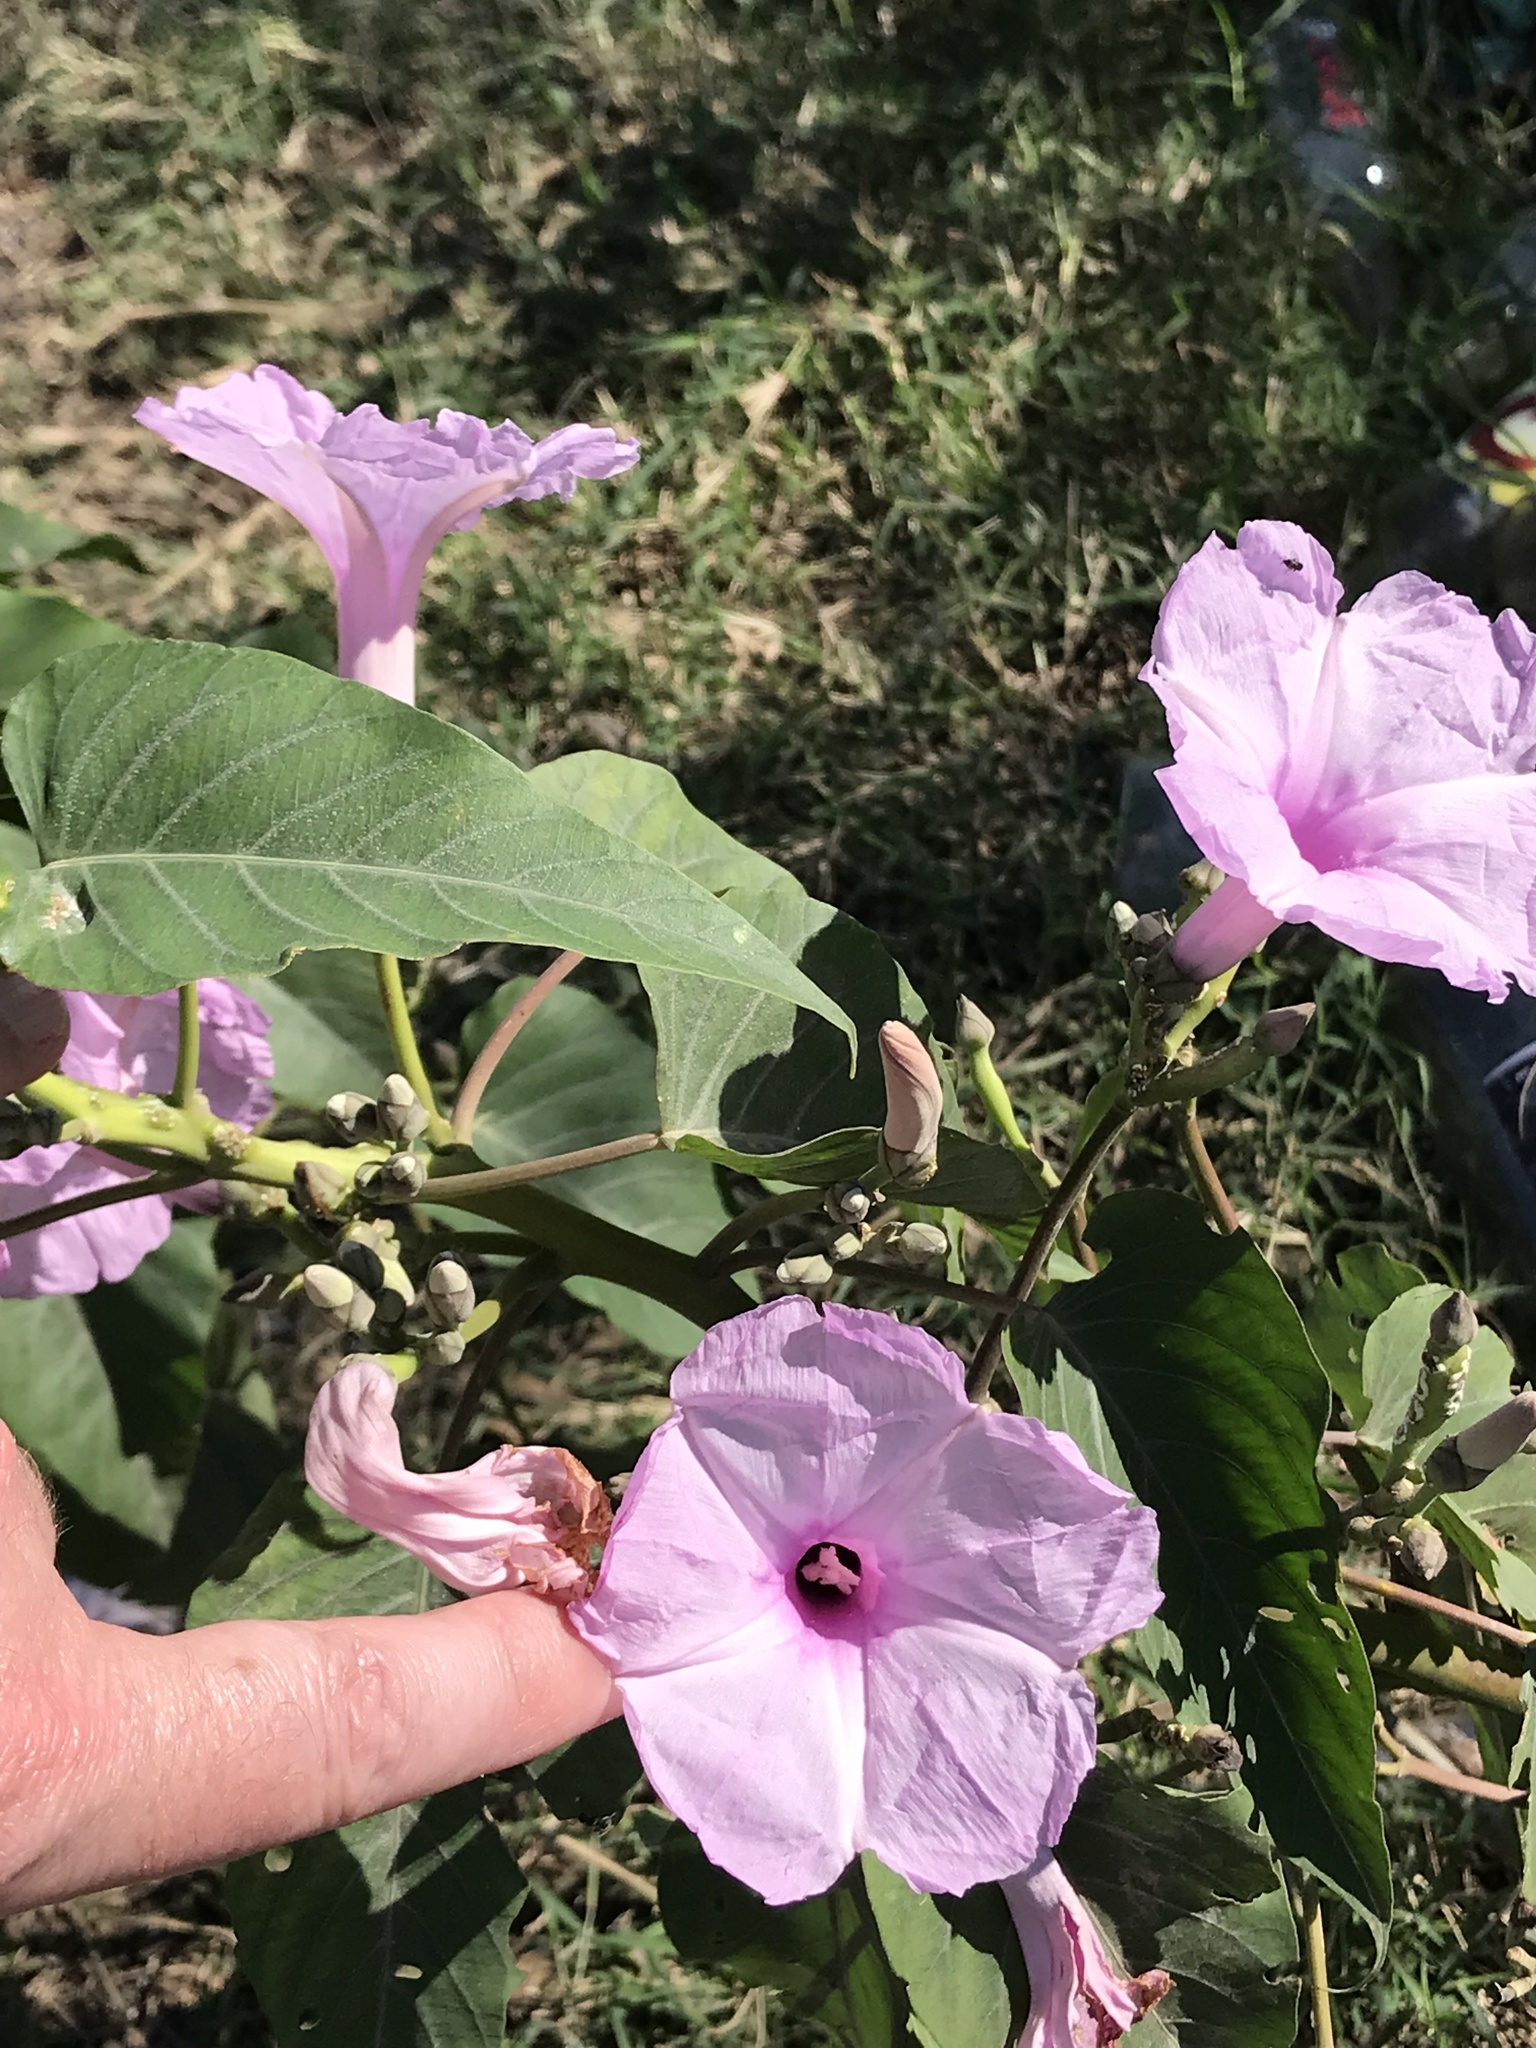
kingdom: Plantae
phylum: Tracheophyta
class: Magnoliopsida
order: Solanales
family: Convolvulaceae
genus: Ipomoea
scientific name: Ipomoea carnea
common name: Morning-glory
